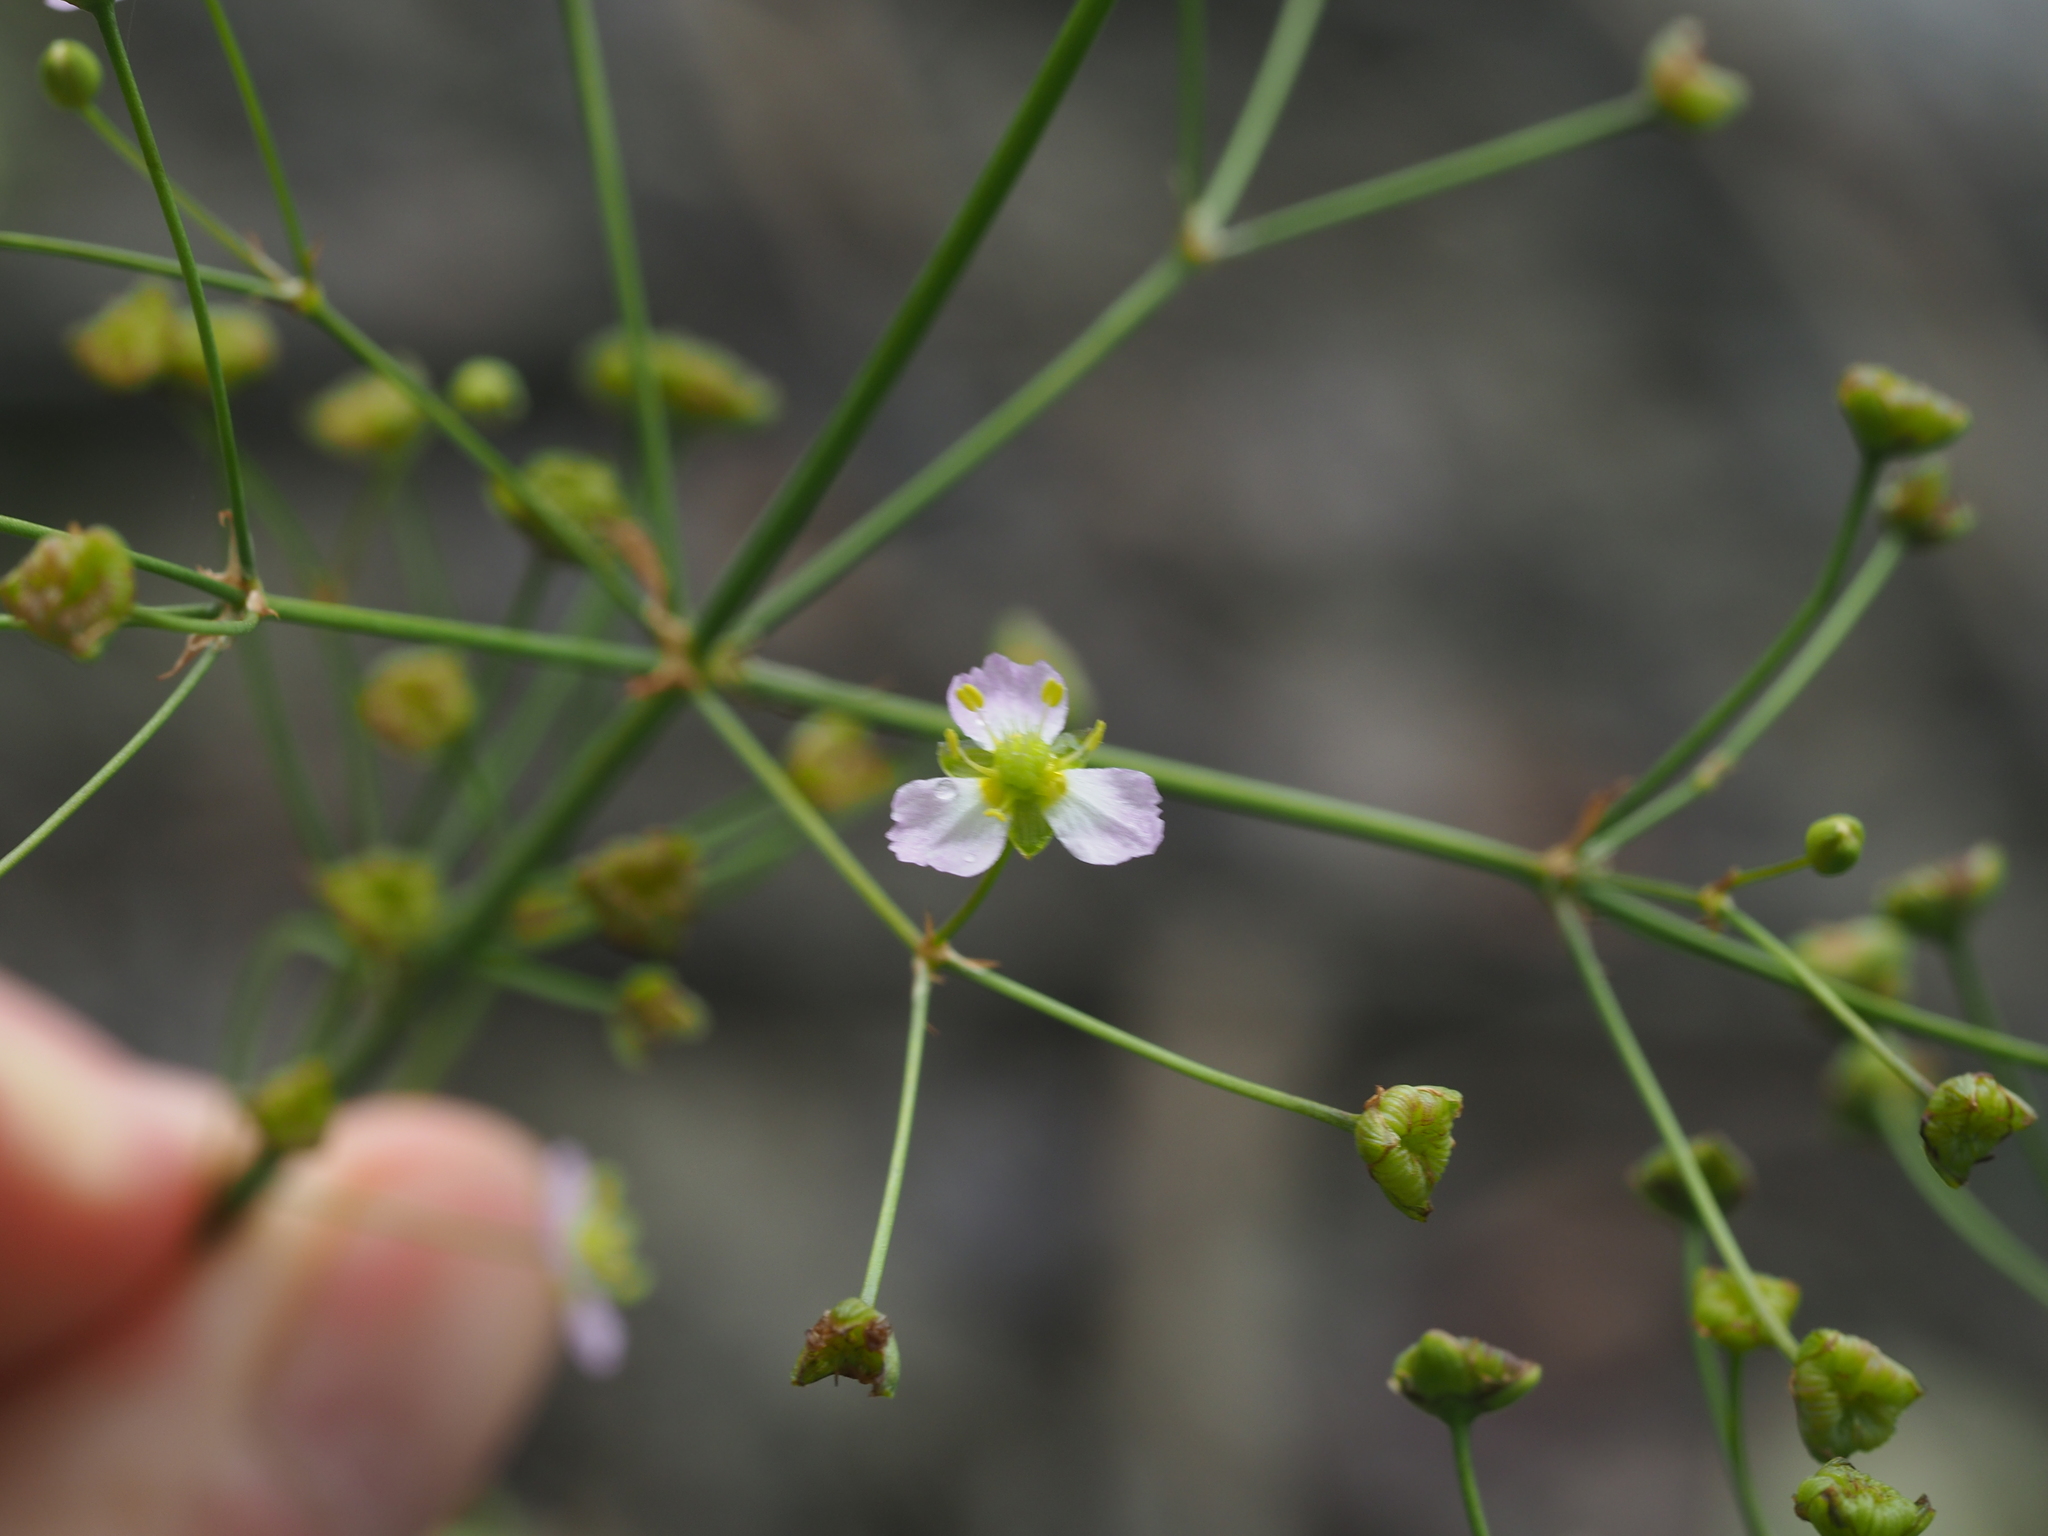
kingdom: Plantae
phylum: Tracheophyta
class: Liliopsida
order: Alismatales
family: Alismataceae
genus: Alisma
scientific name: Alisma plantago-aquatica
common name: Water-plantain
